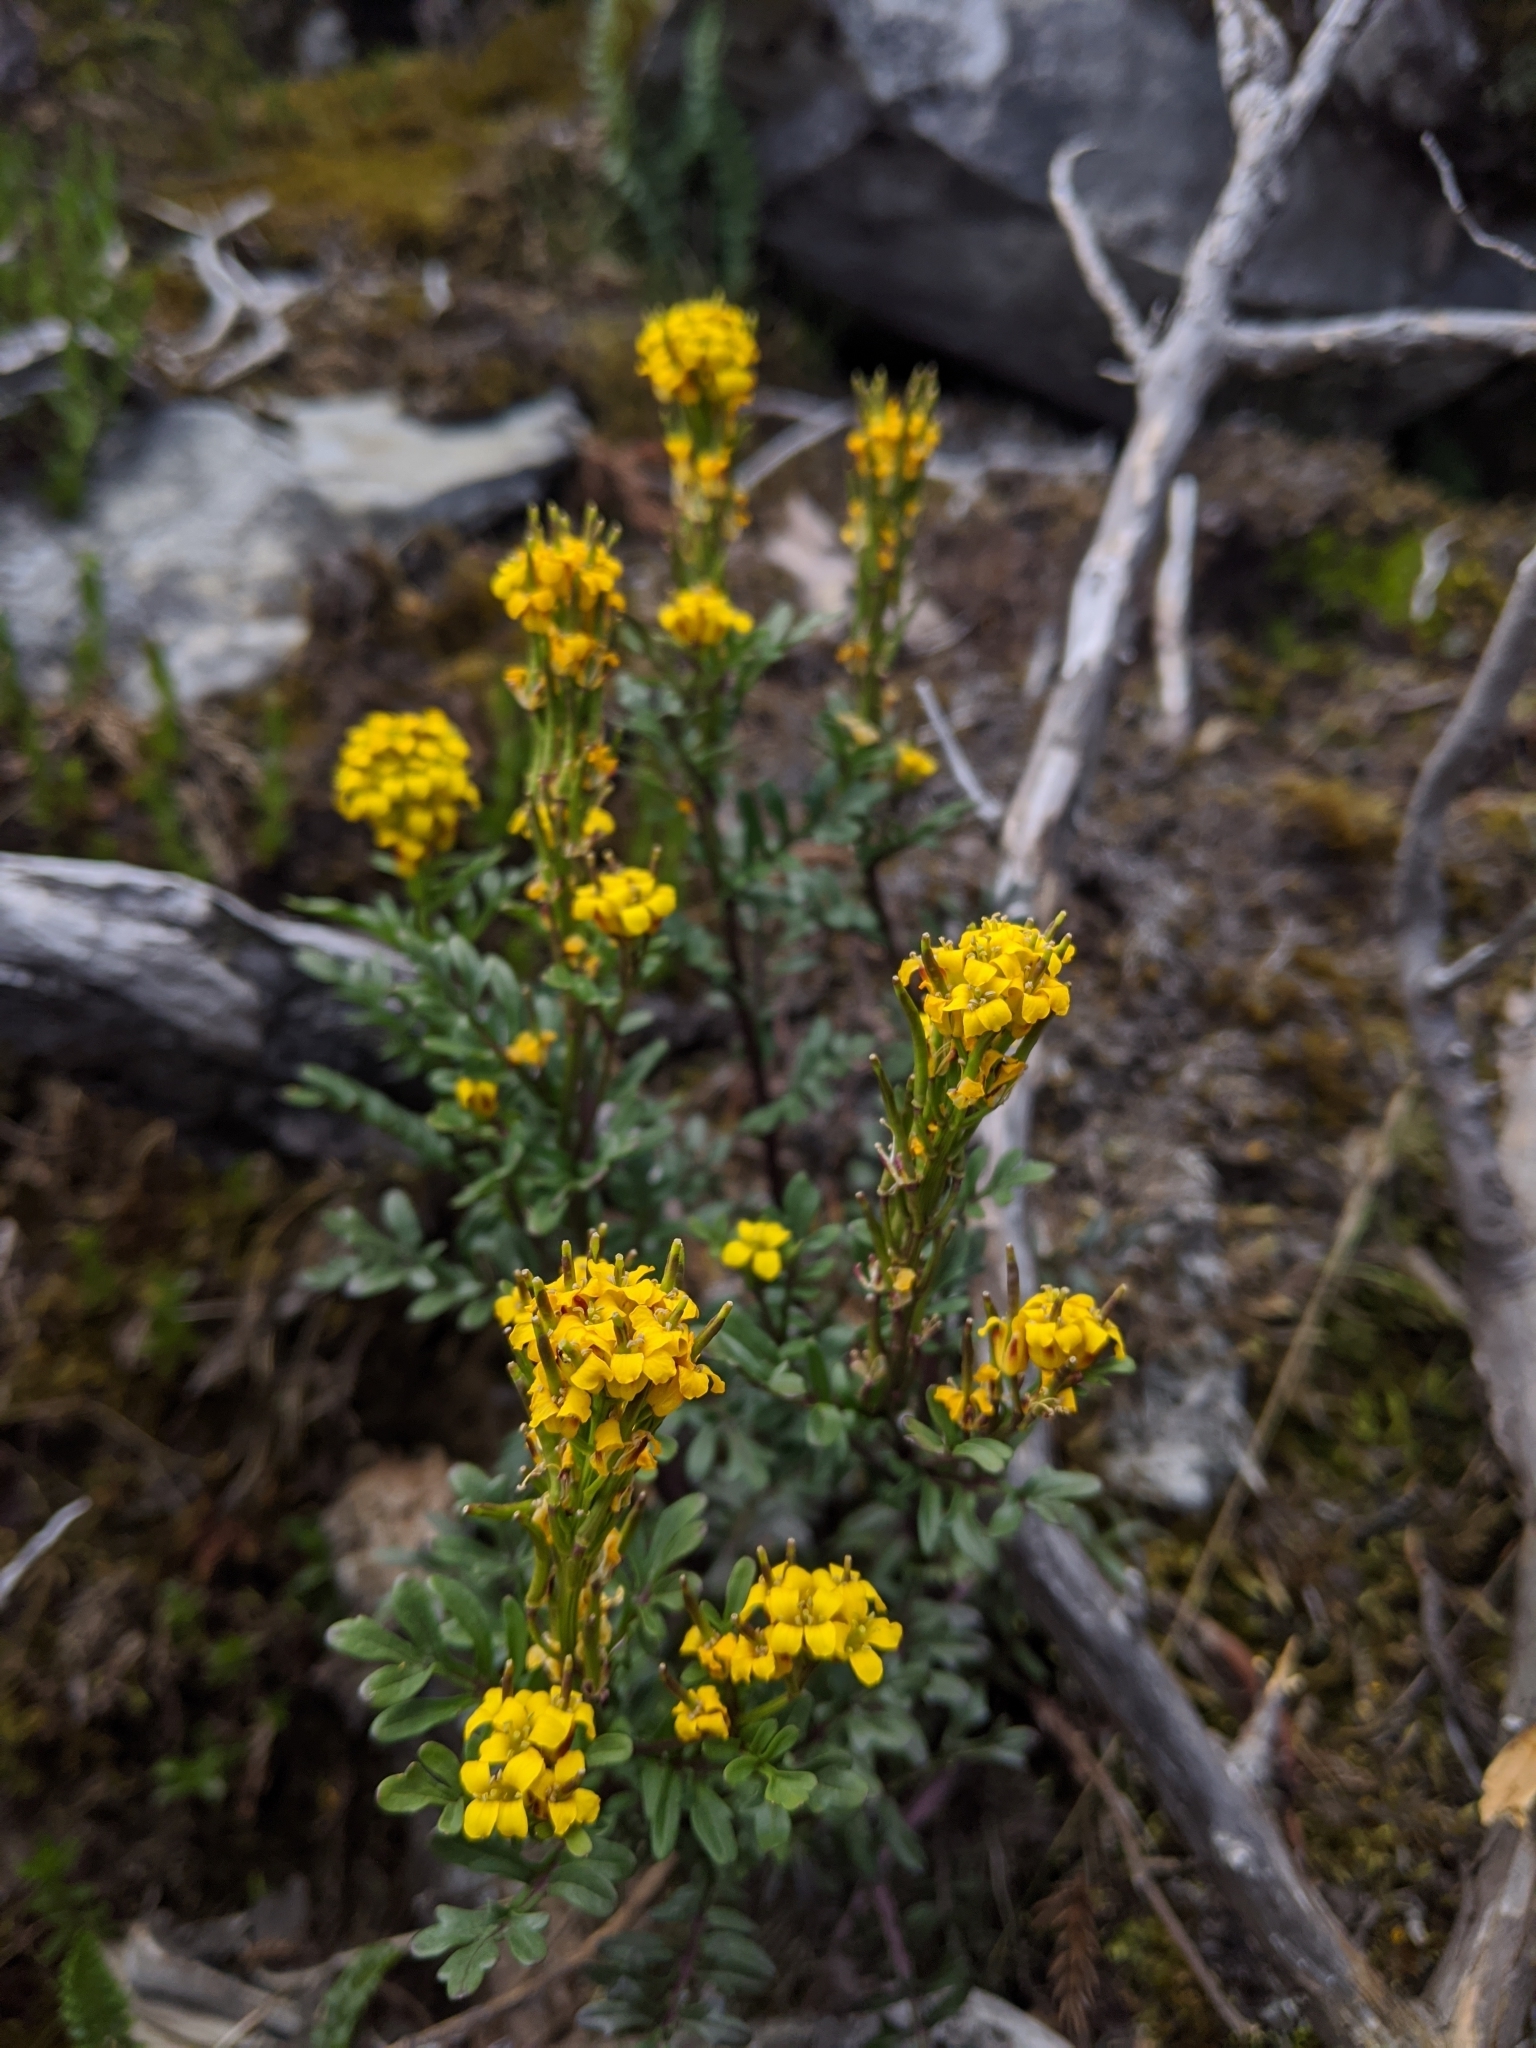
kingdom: Plantae
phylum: Tracheophyta
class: Magnoliopsida
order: Brassicales
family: Brassicaceae
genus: Barbarea
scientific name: Barbarea taiwaniana
